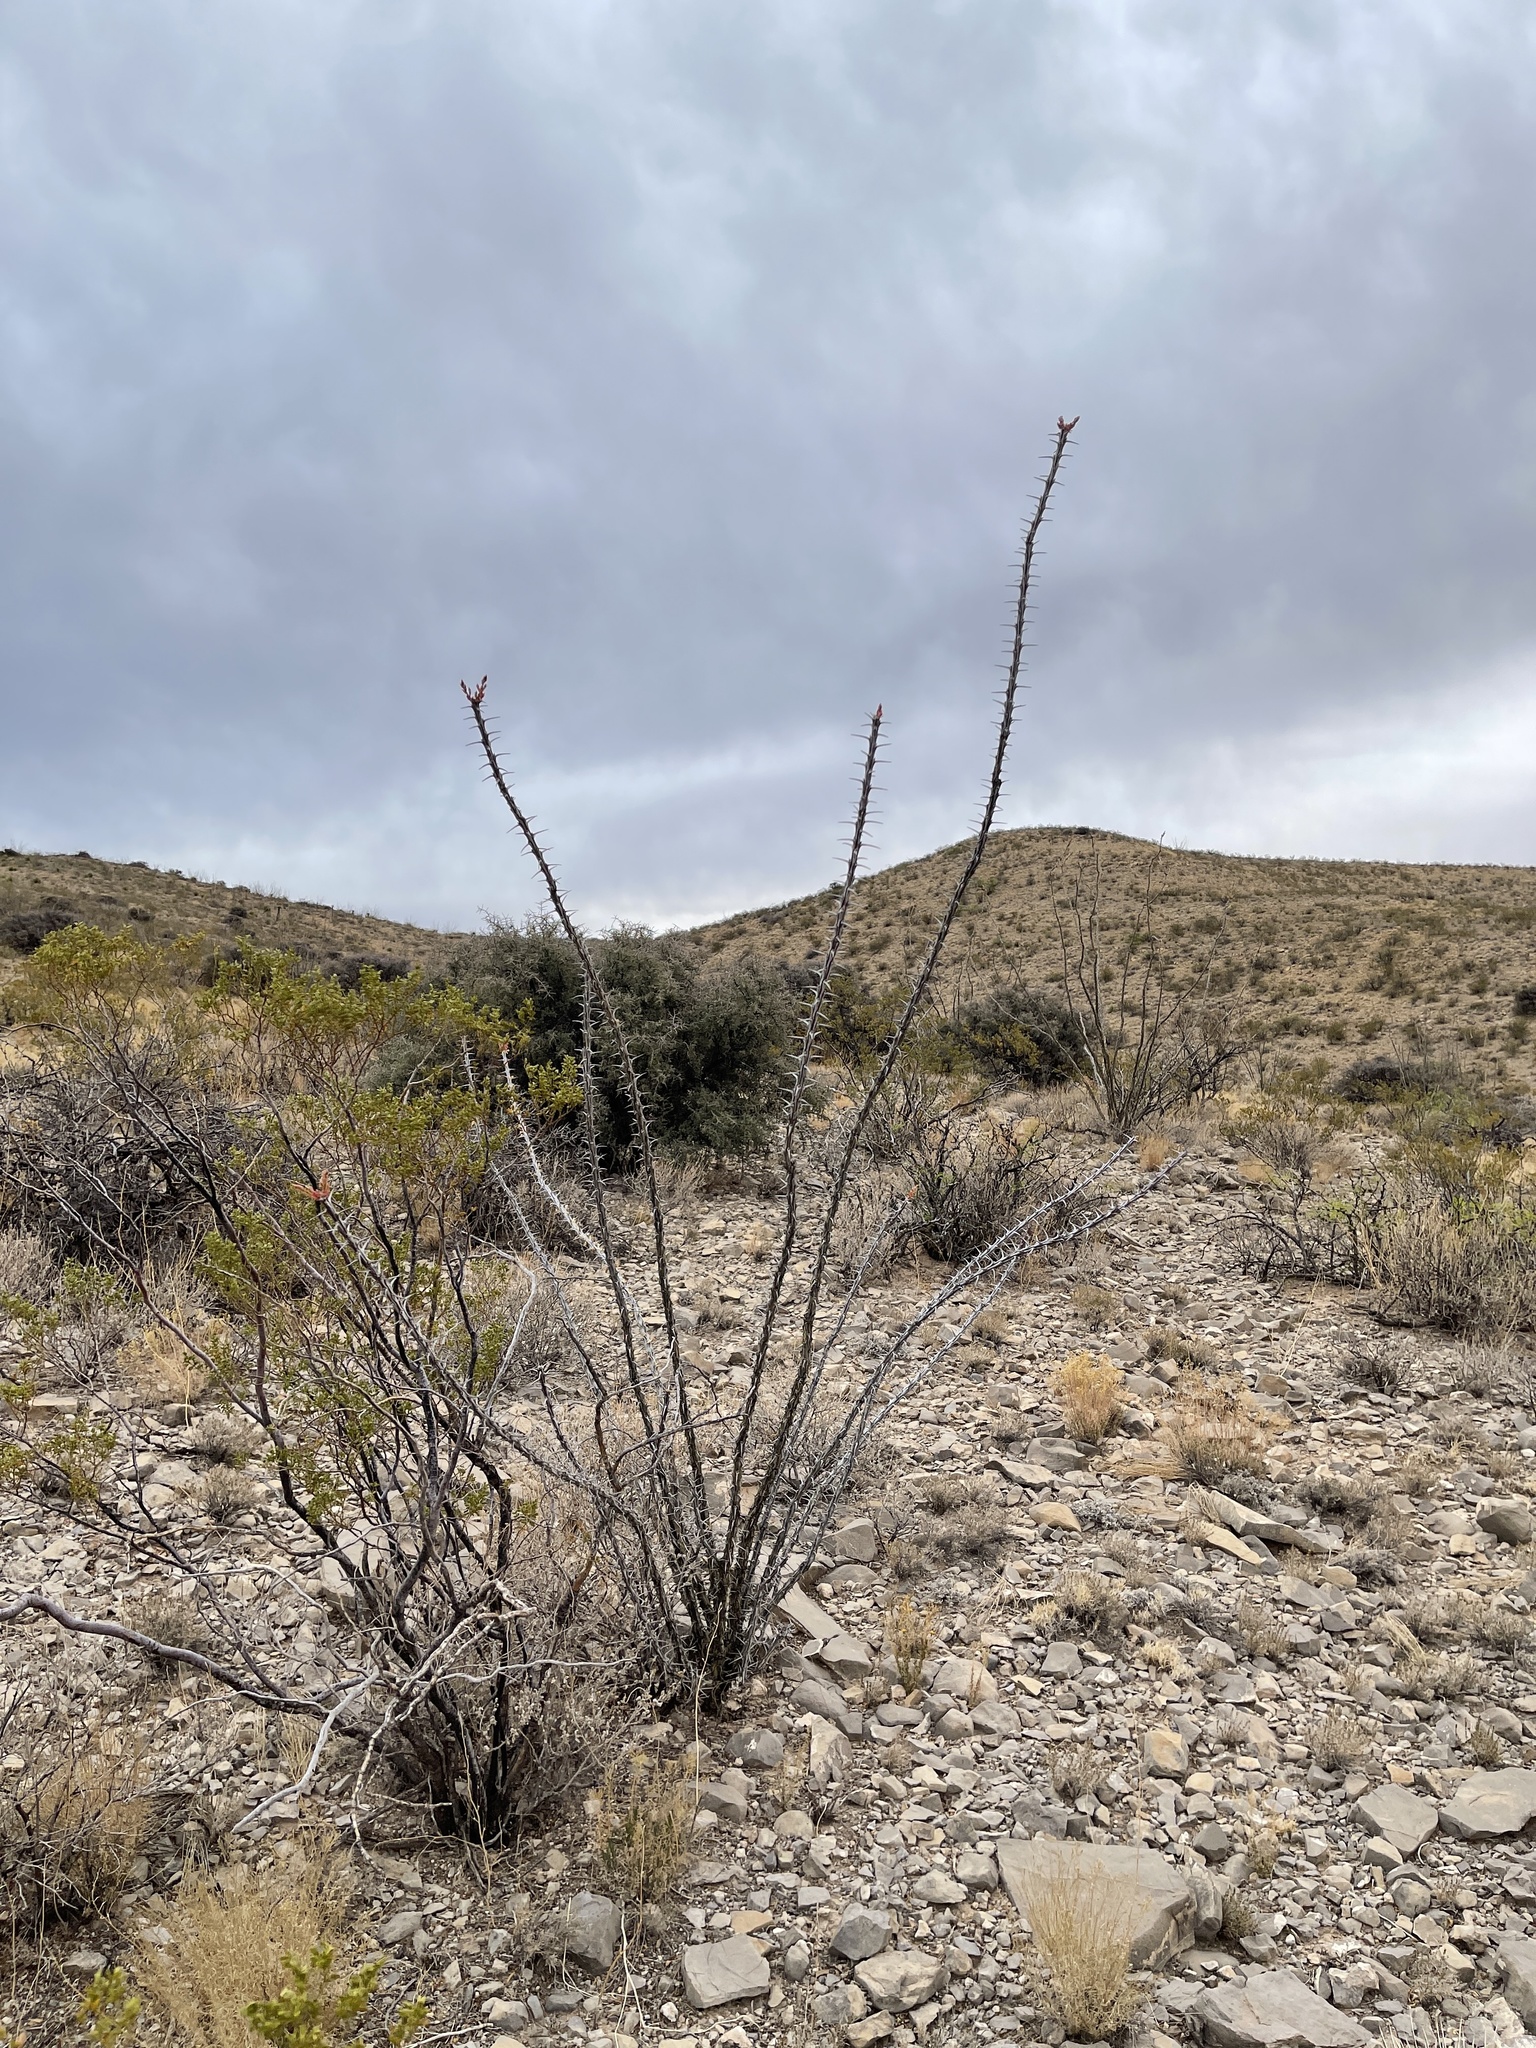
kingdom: Plantae
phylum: Tracheophyta
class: Magnoliopsida
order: Ericales
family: Fouquieriaceae
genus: Fouquieria
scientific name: Fouquieria splendens
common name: Vine-cactus
